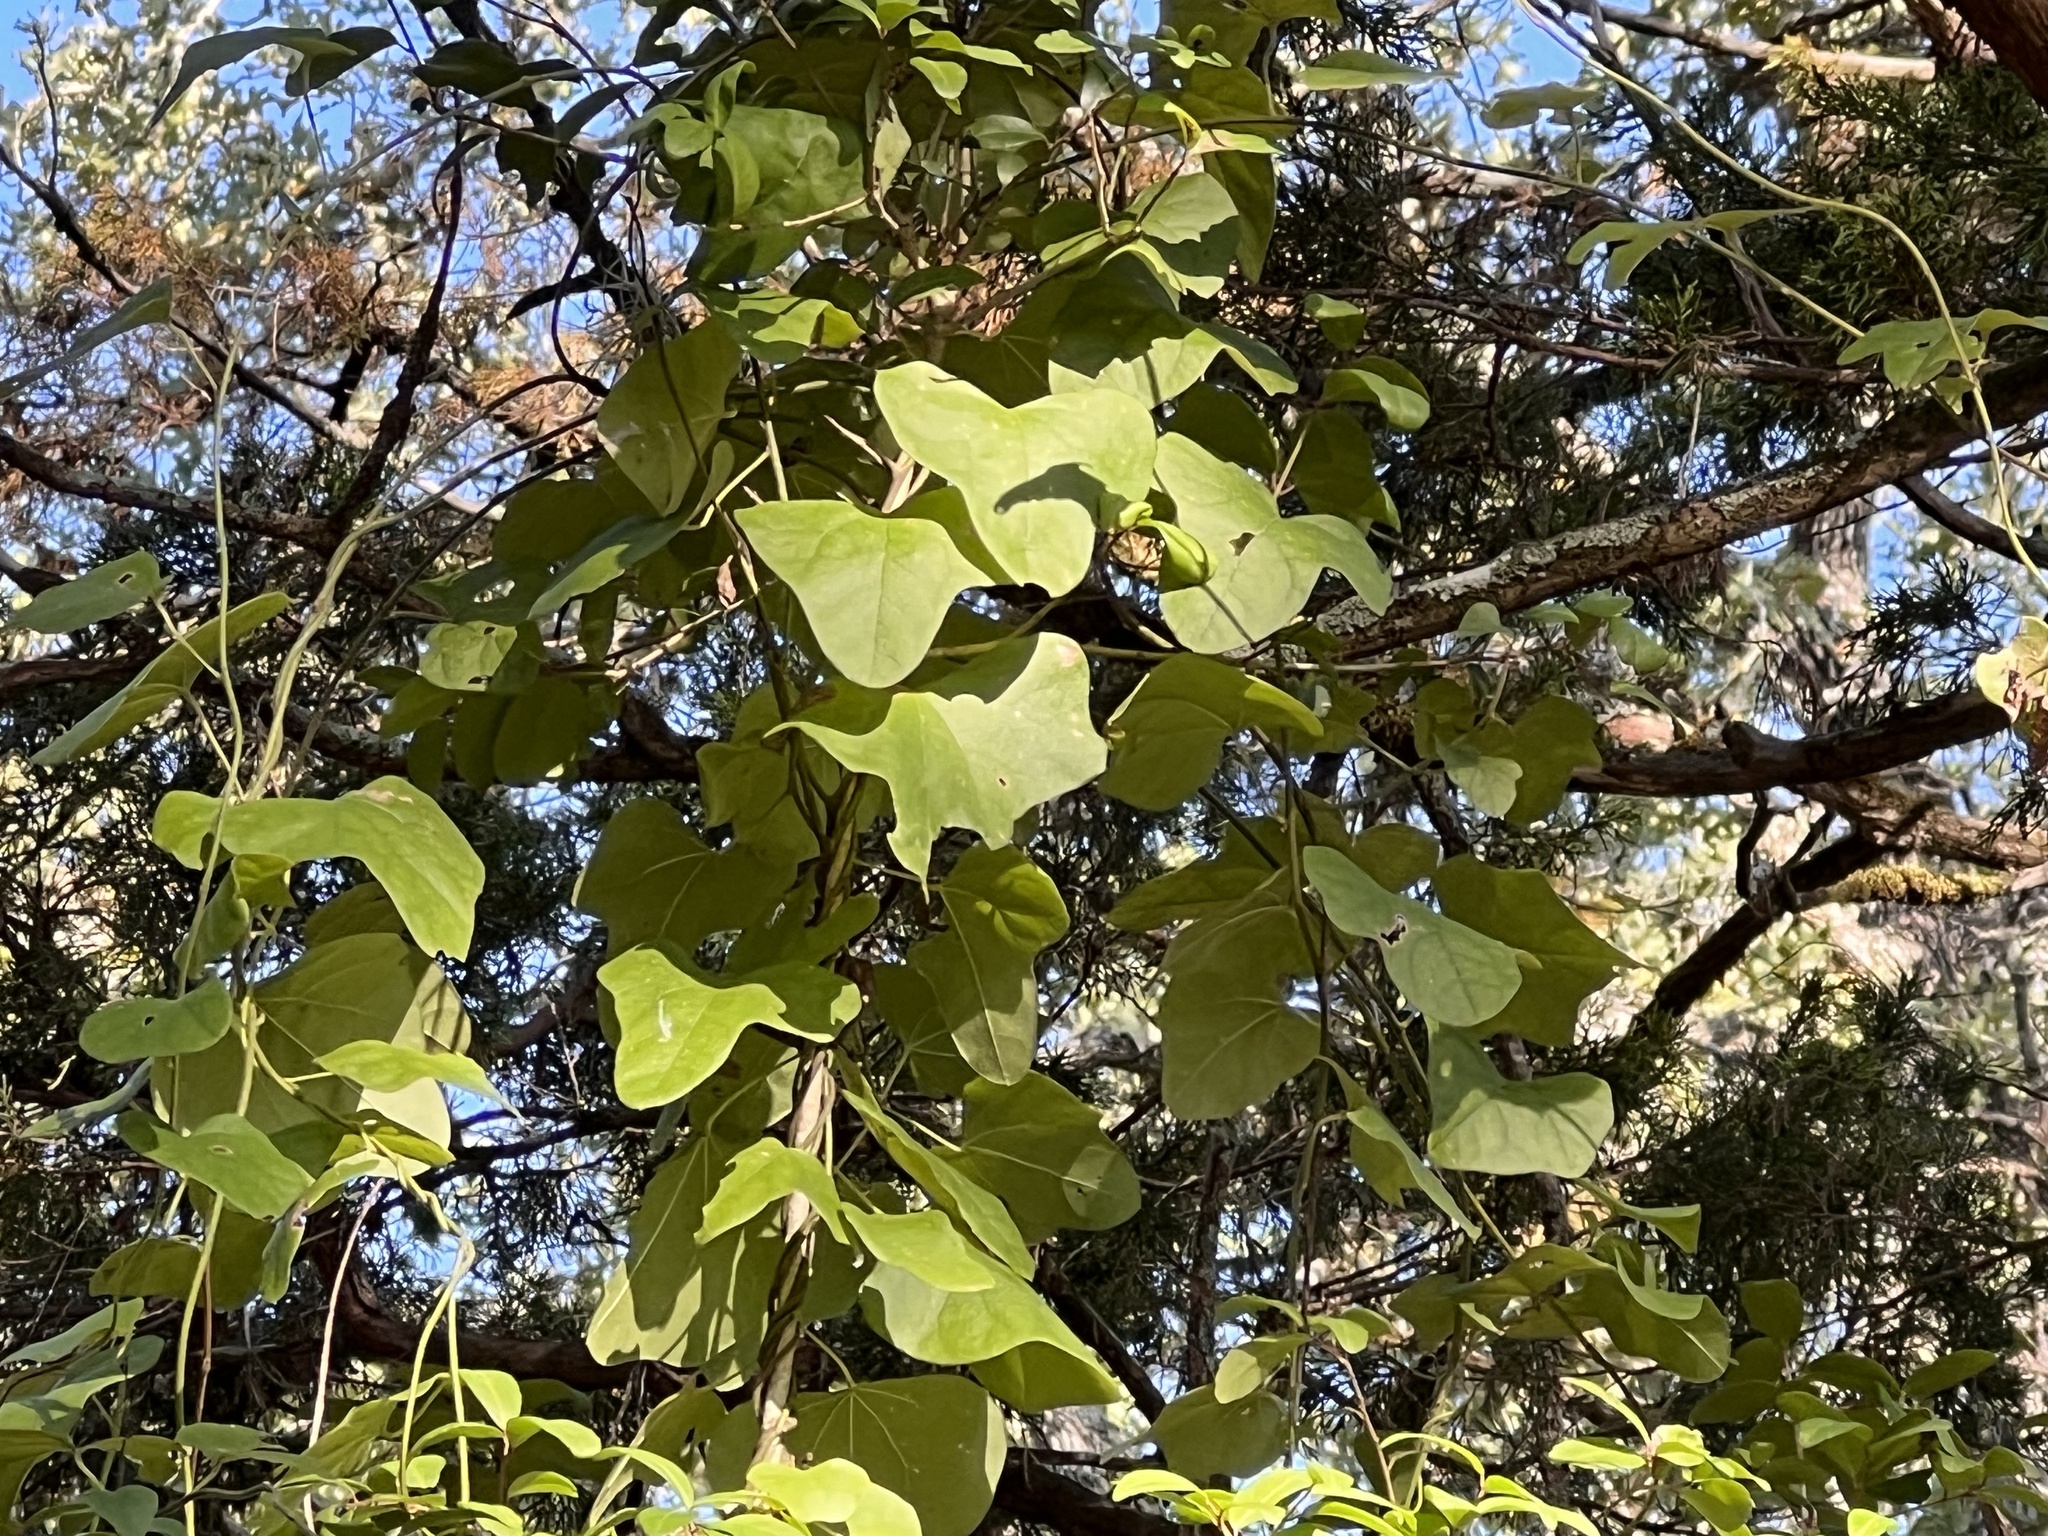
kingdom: Plantae
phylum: Tracheophyta
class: Magnoliopsida
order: Ranunculales
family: Menispermaceae
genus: Cocculus
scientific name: Cocculus carolinus
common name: Carolina moonseed
